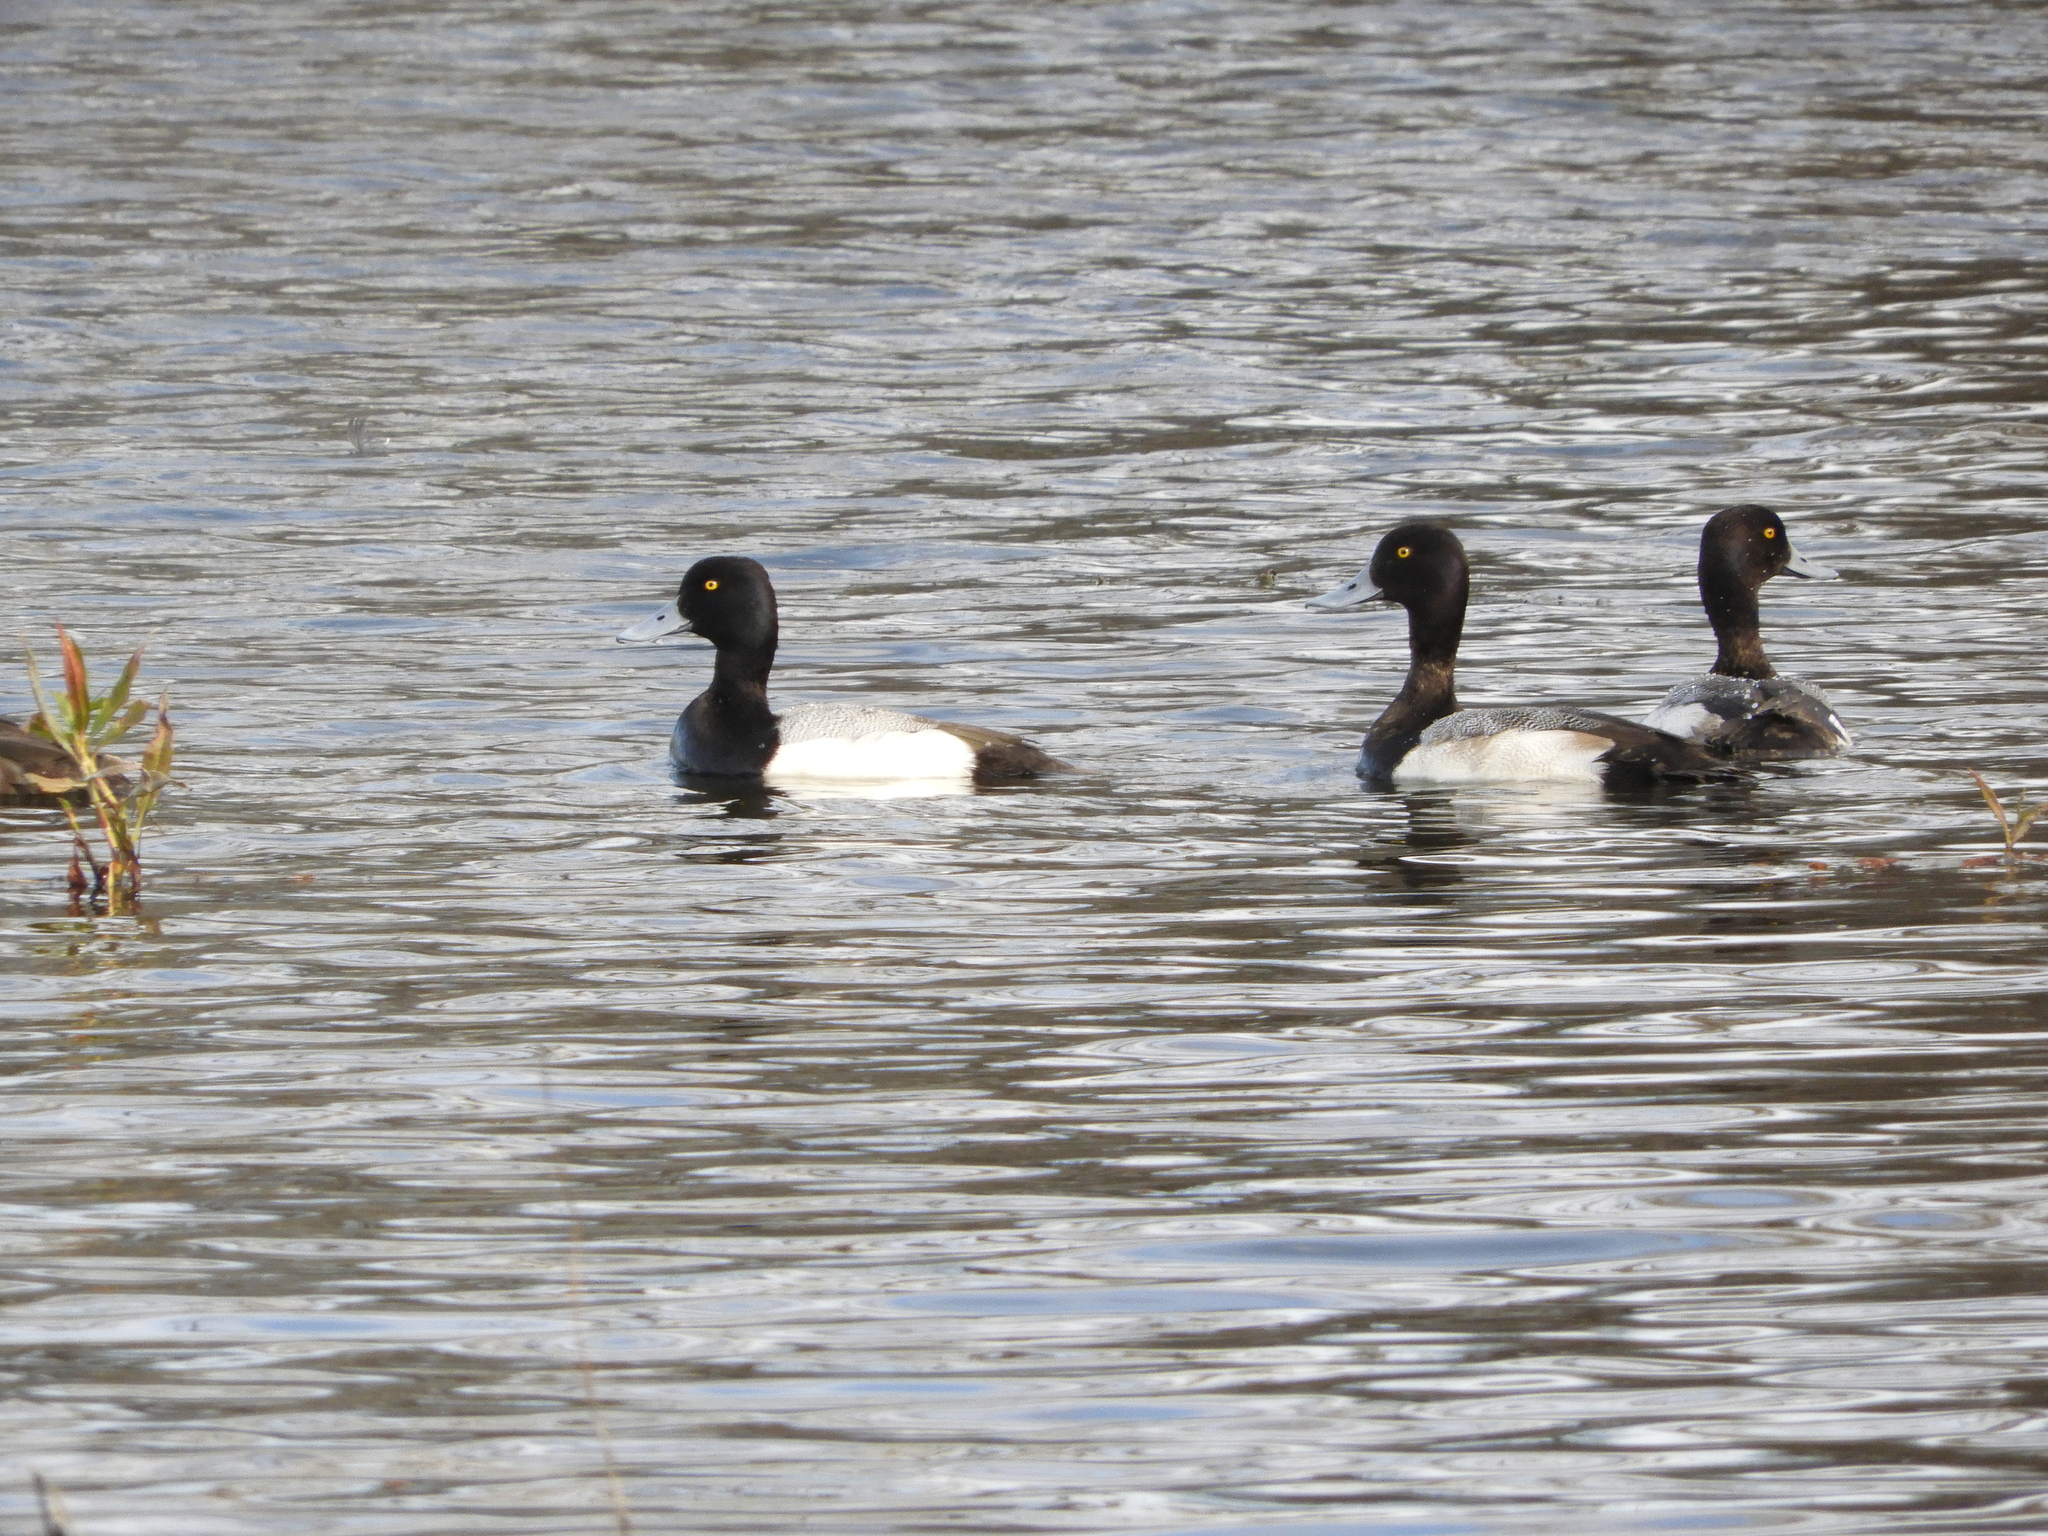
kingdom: Animalia
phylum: Chordata
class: Aves
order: Anseriformes
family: Anatidae
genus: Aythya
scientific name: Aythya affinis
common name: Lesser scaup
